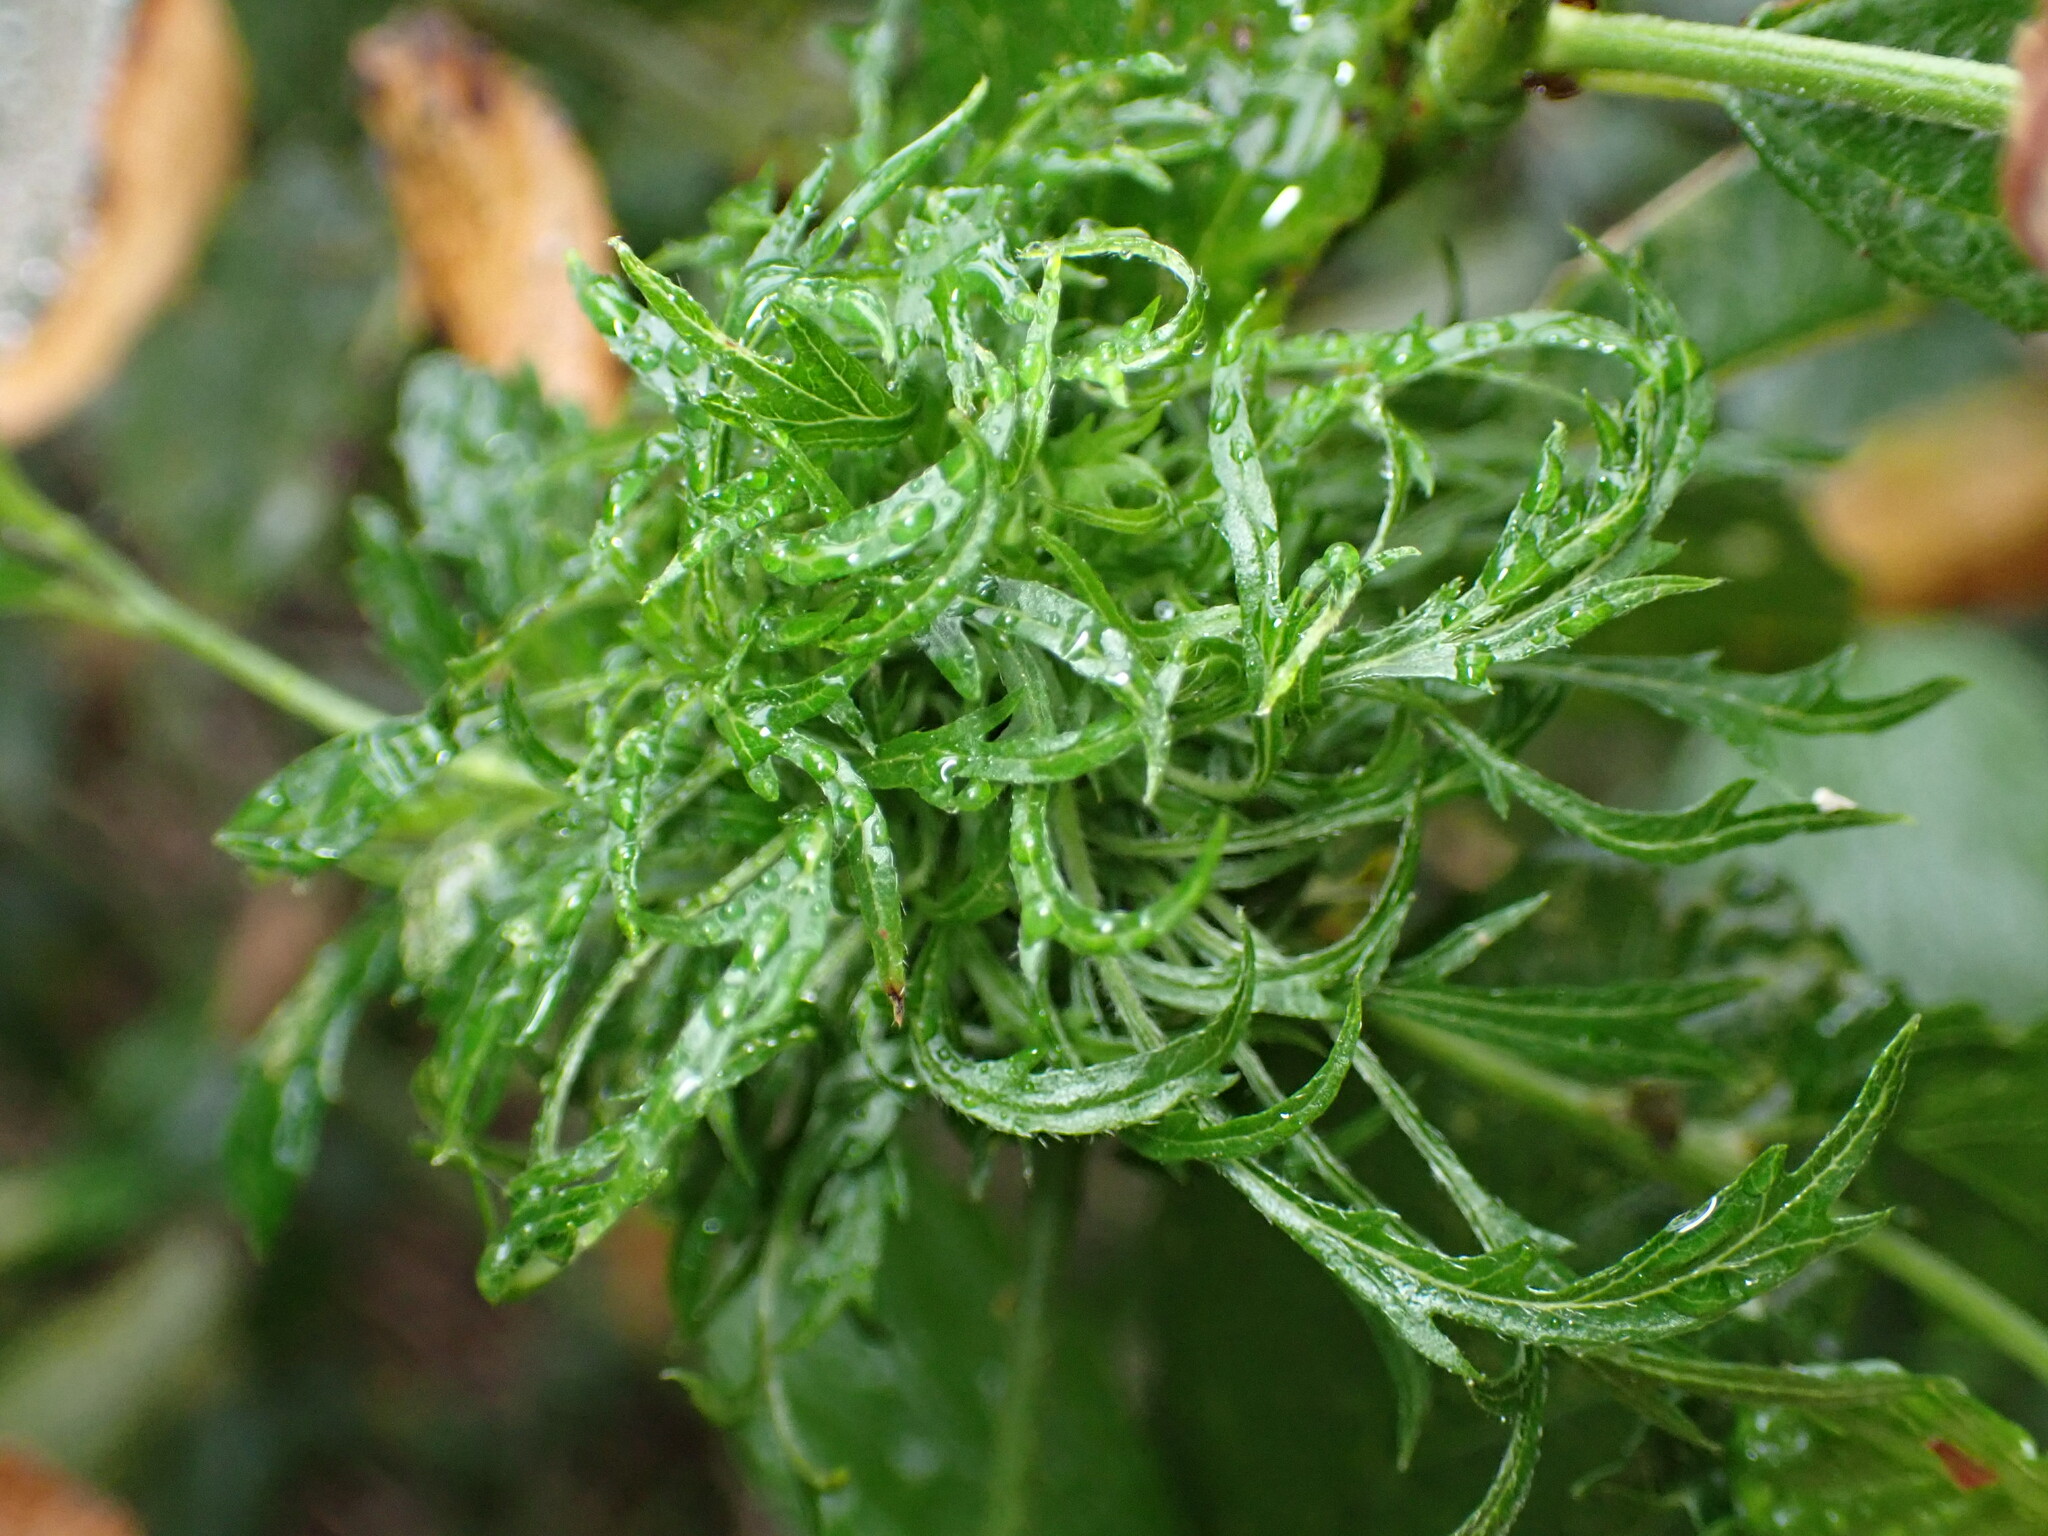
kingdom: Animalia
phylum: Arthropoda
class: Insecta
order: Diptera
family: Cecidomyiidae
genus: Asphondylia
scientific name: Asphondylia ceanothi
